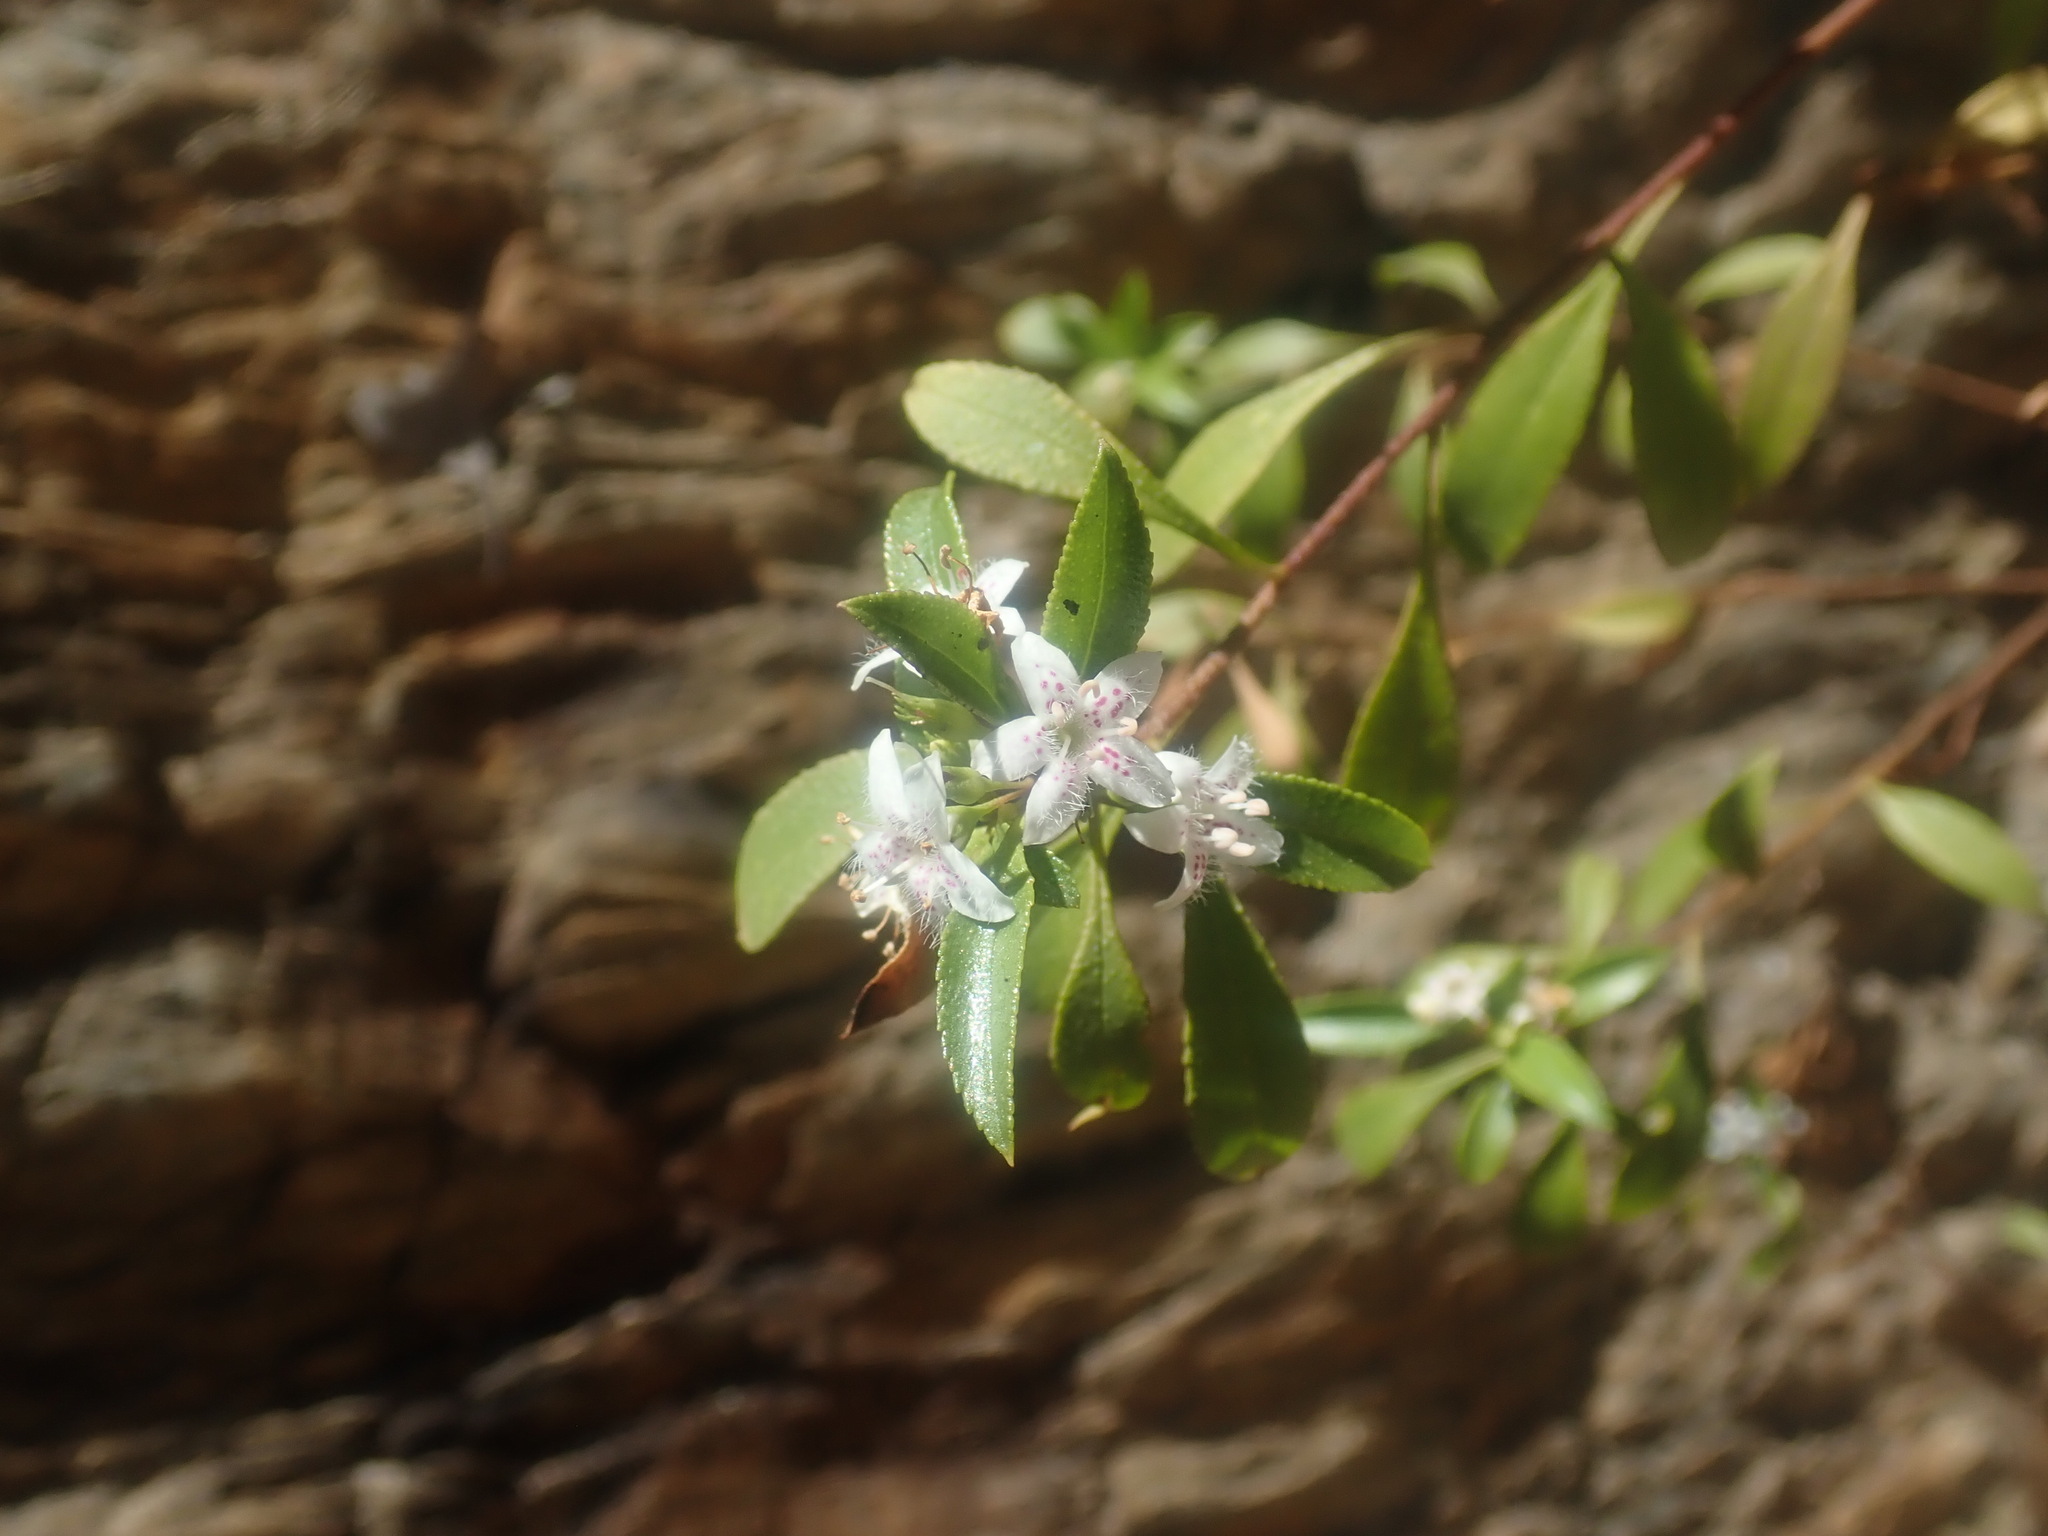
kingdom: Plantae
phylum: Tracheophyta
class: Magnoliopsida
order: Lamiales
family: Scrophulariaceae
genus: Myoporum
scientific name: Myoporum petiolatum
